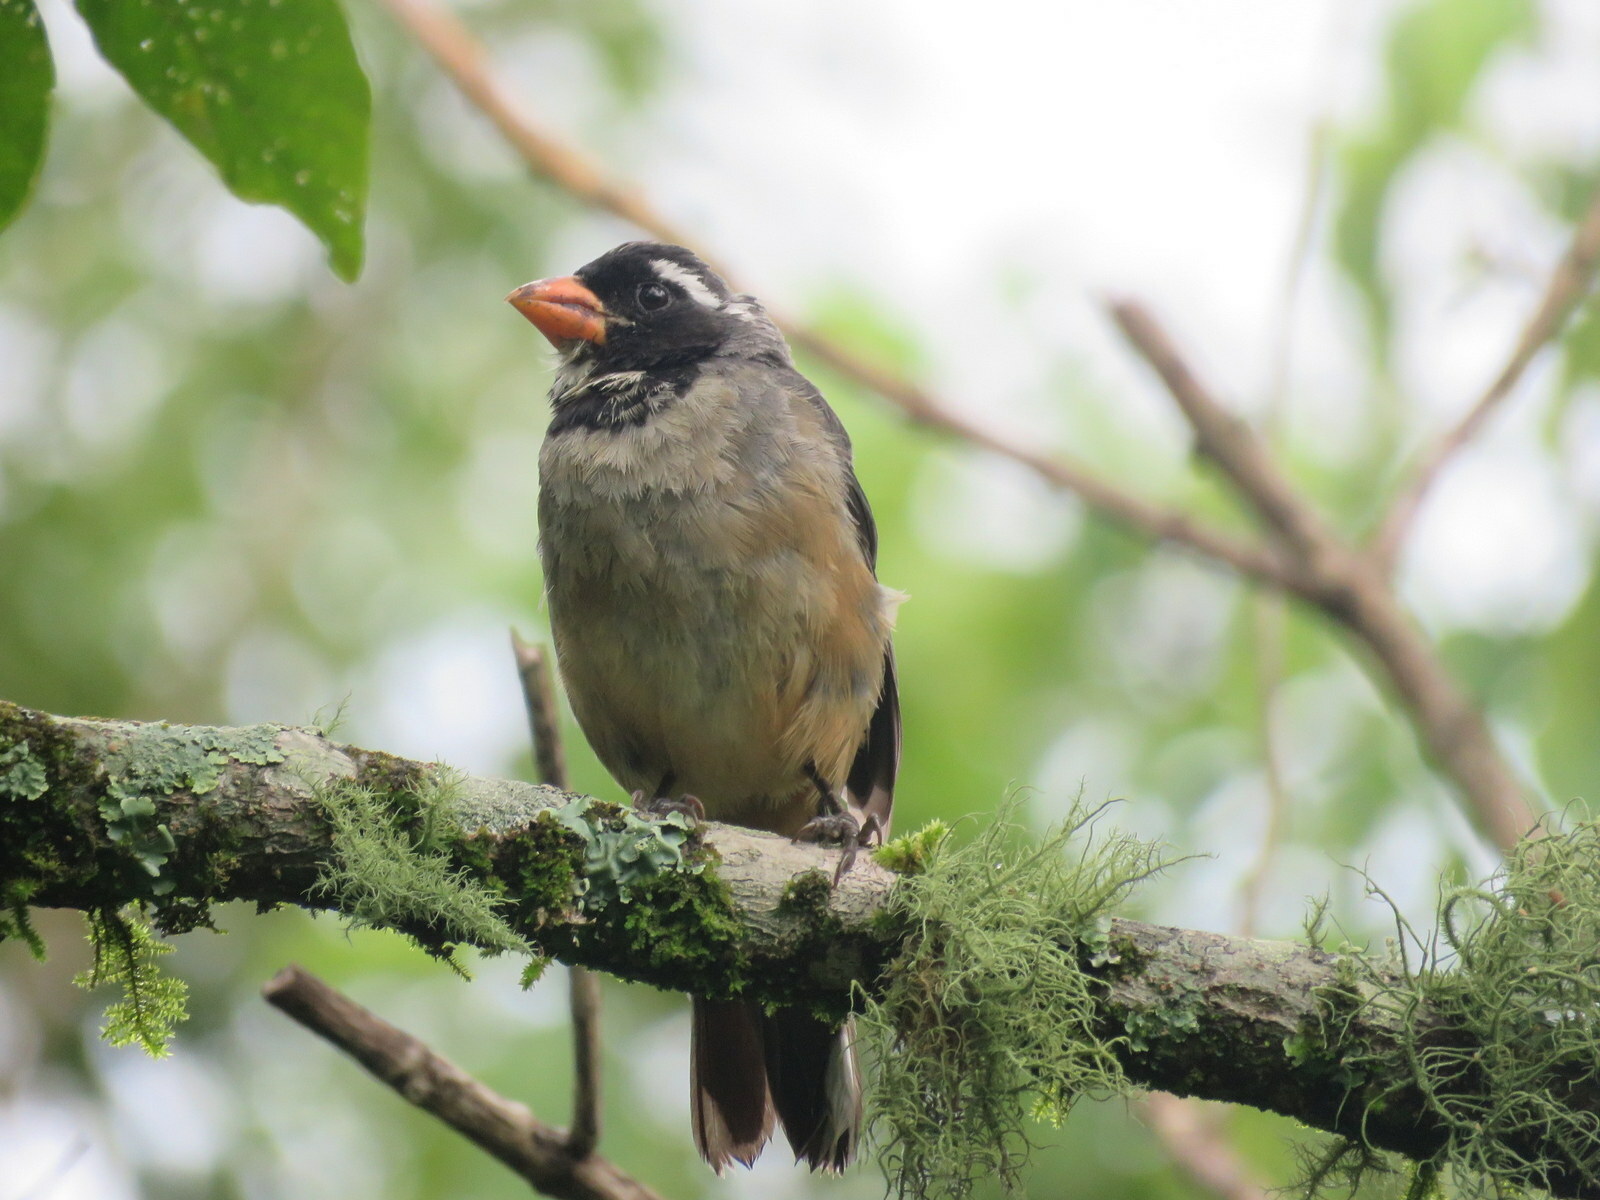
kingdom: Animalia
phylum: Chordata
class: Aves
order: Passeriformes
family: Thraupidae
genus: Saltator
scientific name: Saltator aurantiirostris
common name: Golden-billed saltator
